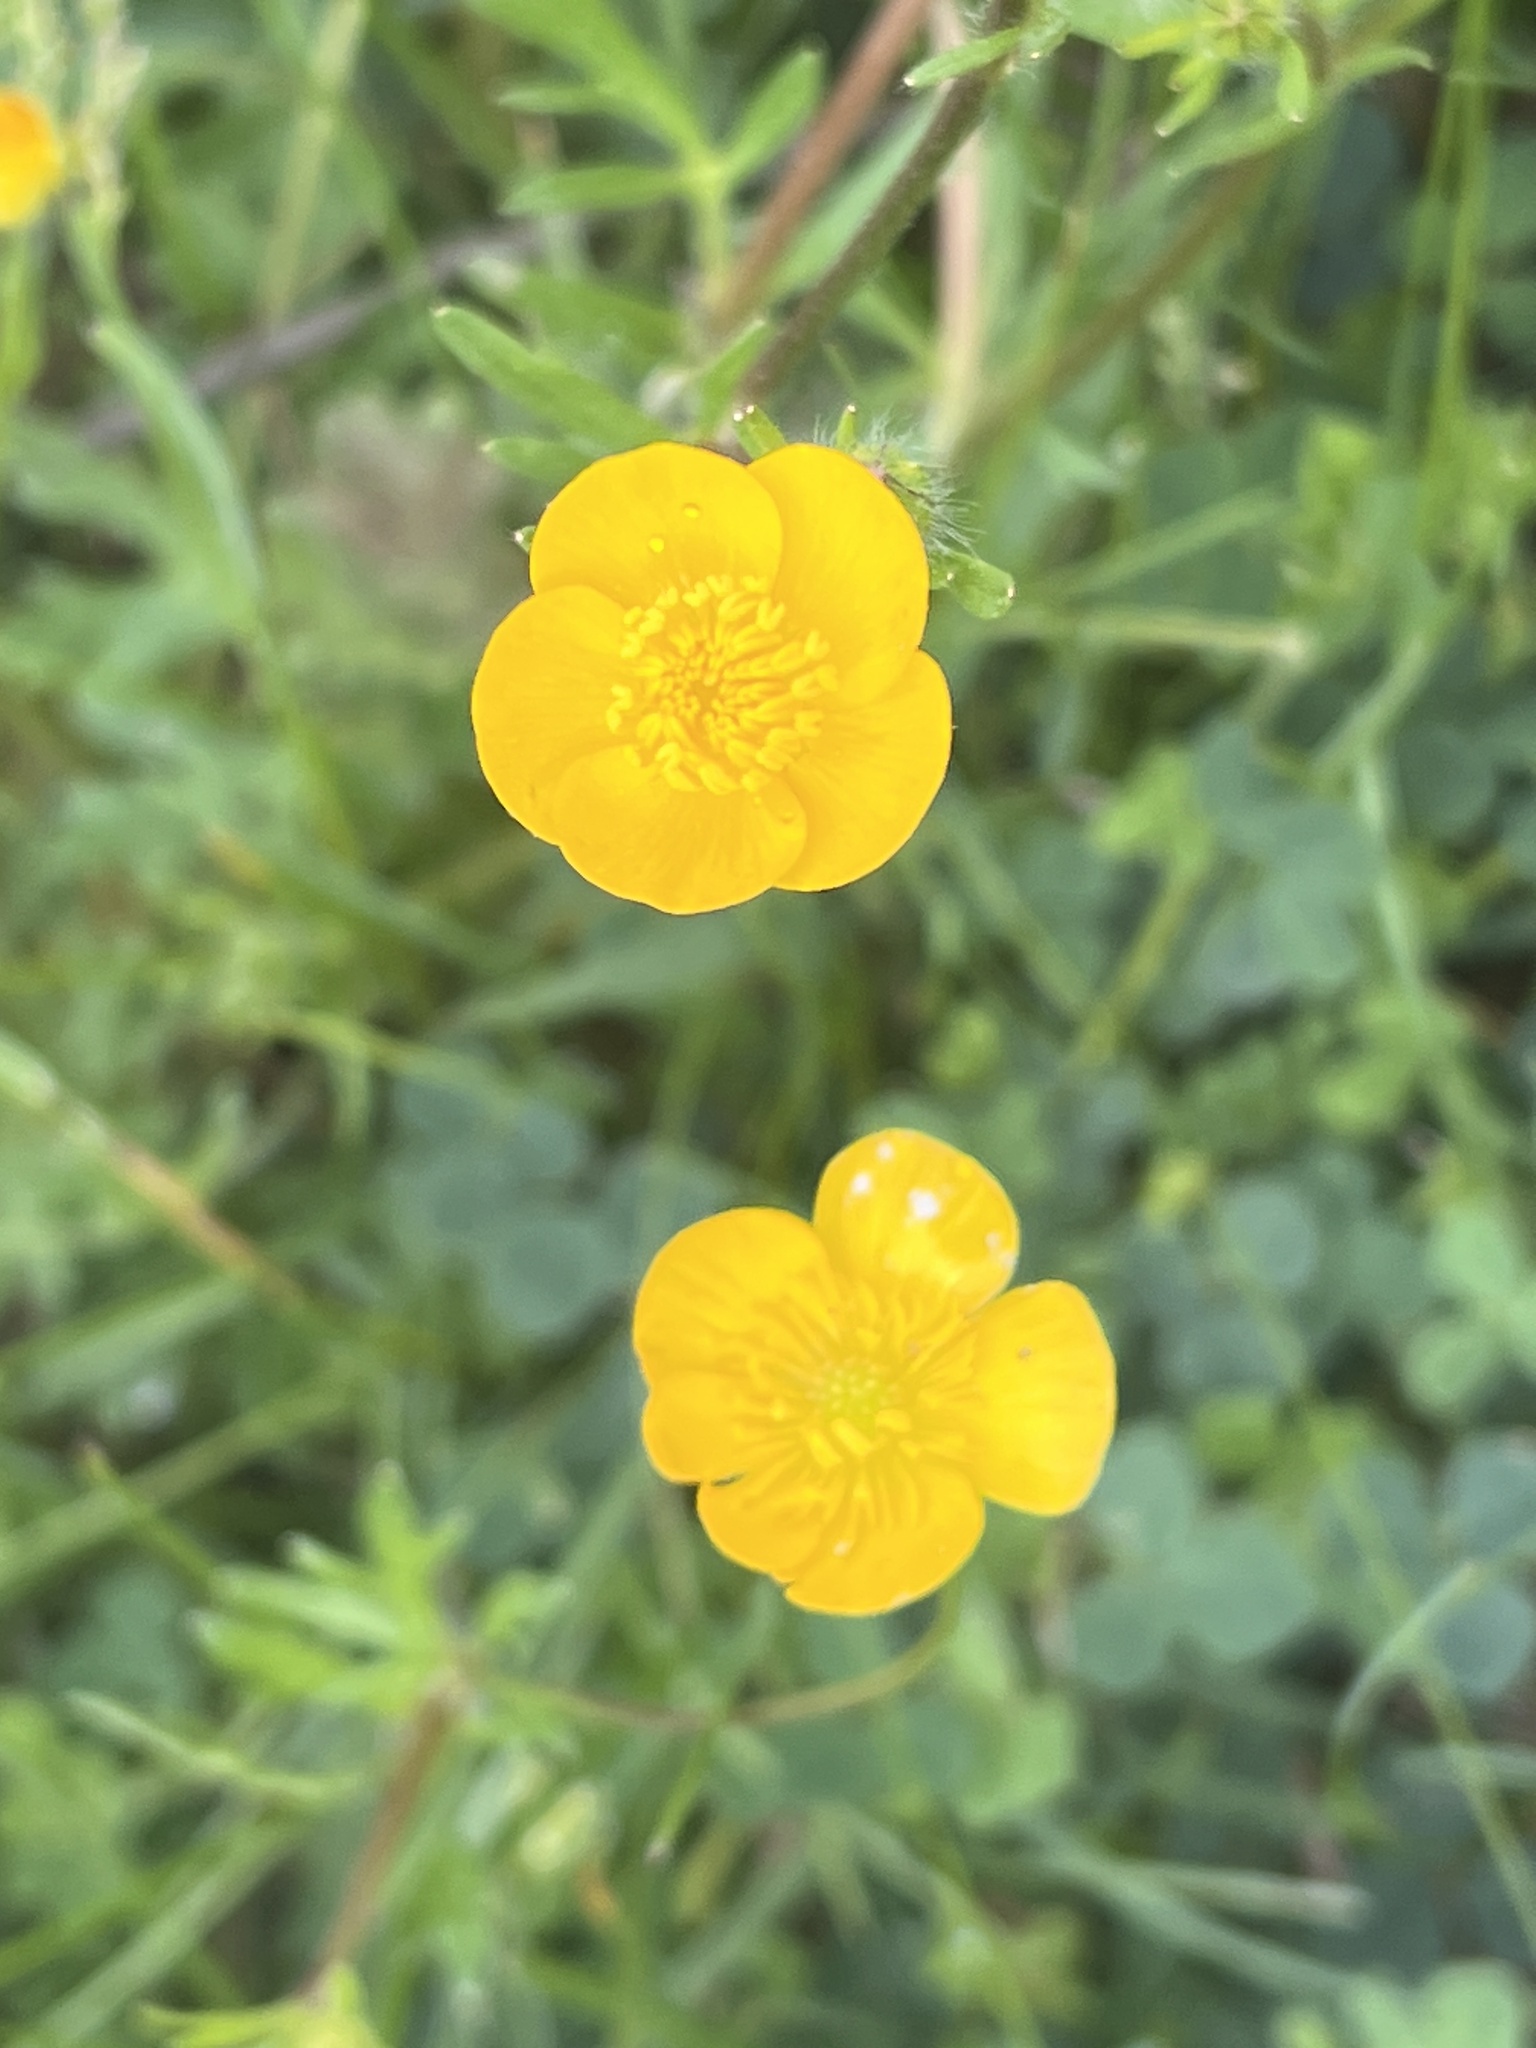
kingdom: Plantae
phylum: Tracheophyta
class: Magnoliopsida
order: Ranunculales
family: Ranunculaceae
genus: Ranunculus
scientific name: Ranunculus bulbosus
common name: Bulbous buttercup
